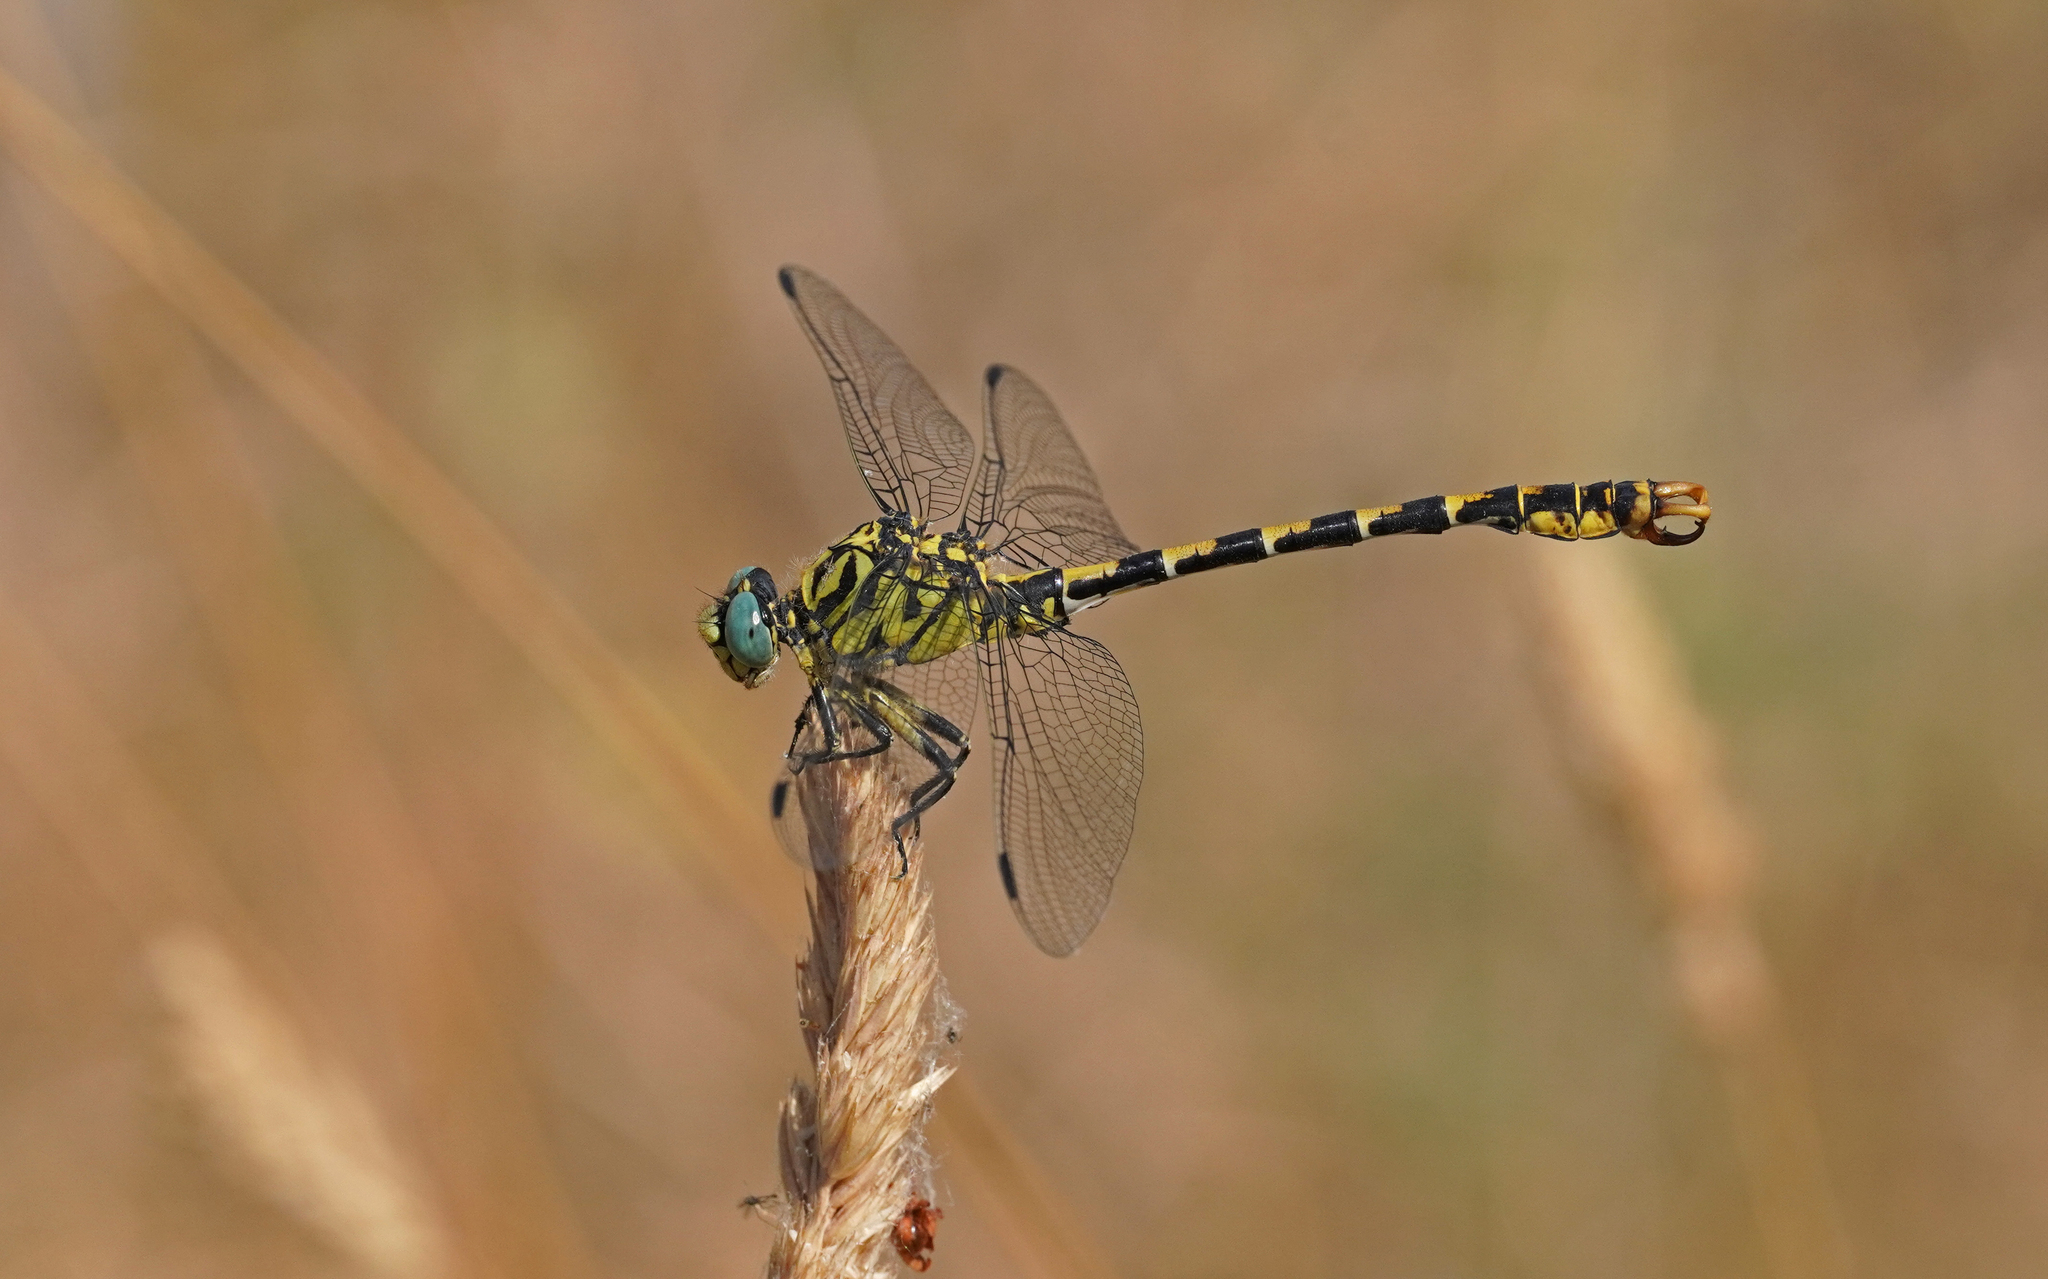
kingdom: Animalia
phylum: Arthropoda
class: Insecta
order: Odonata
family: Gomphidae
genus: Onychogomphus
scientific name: Onychogomphus forcipatus
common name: Small pincertail
